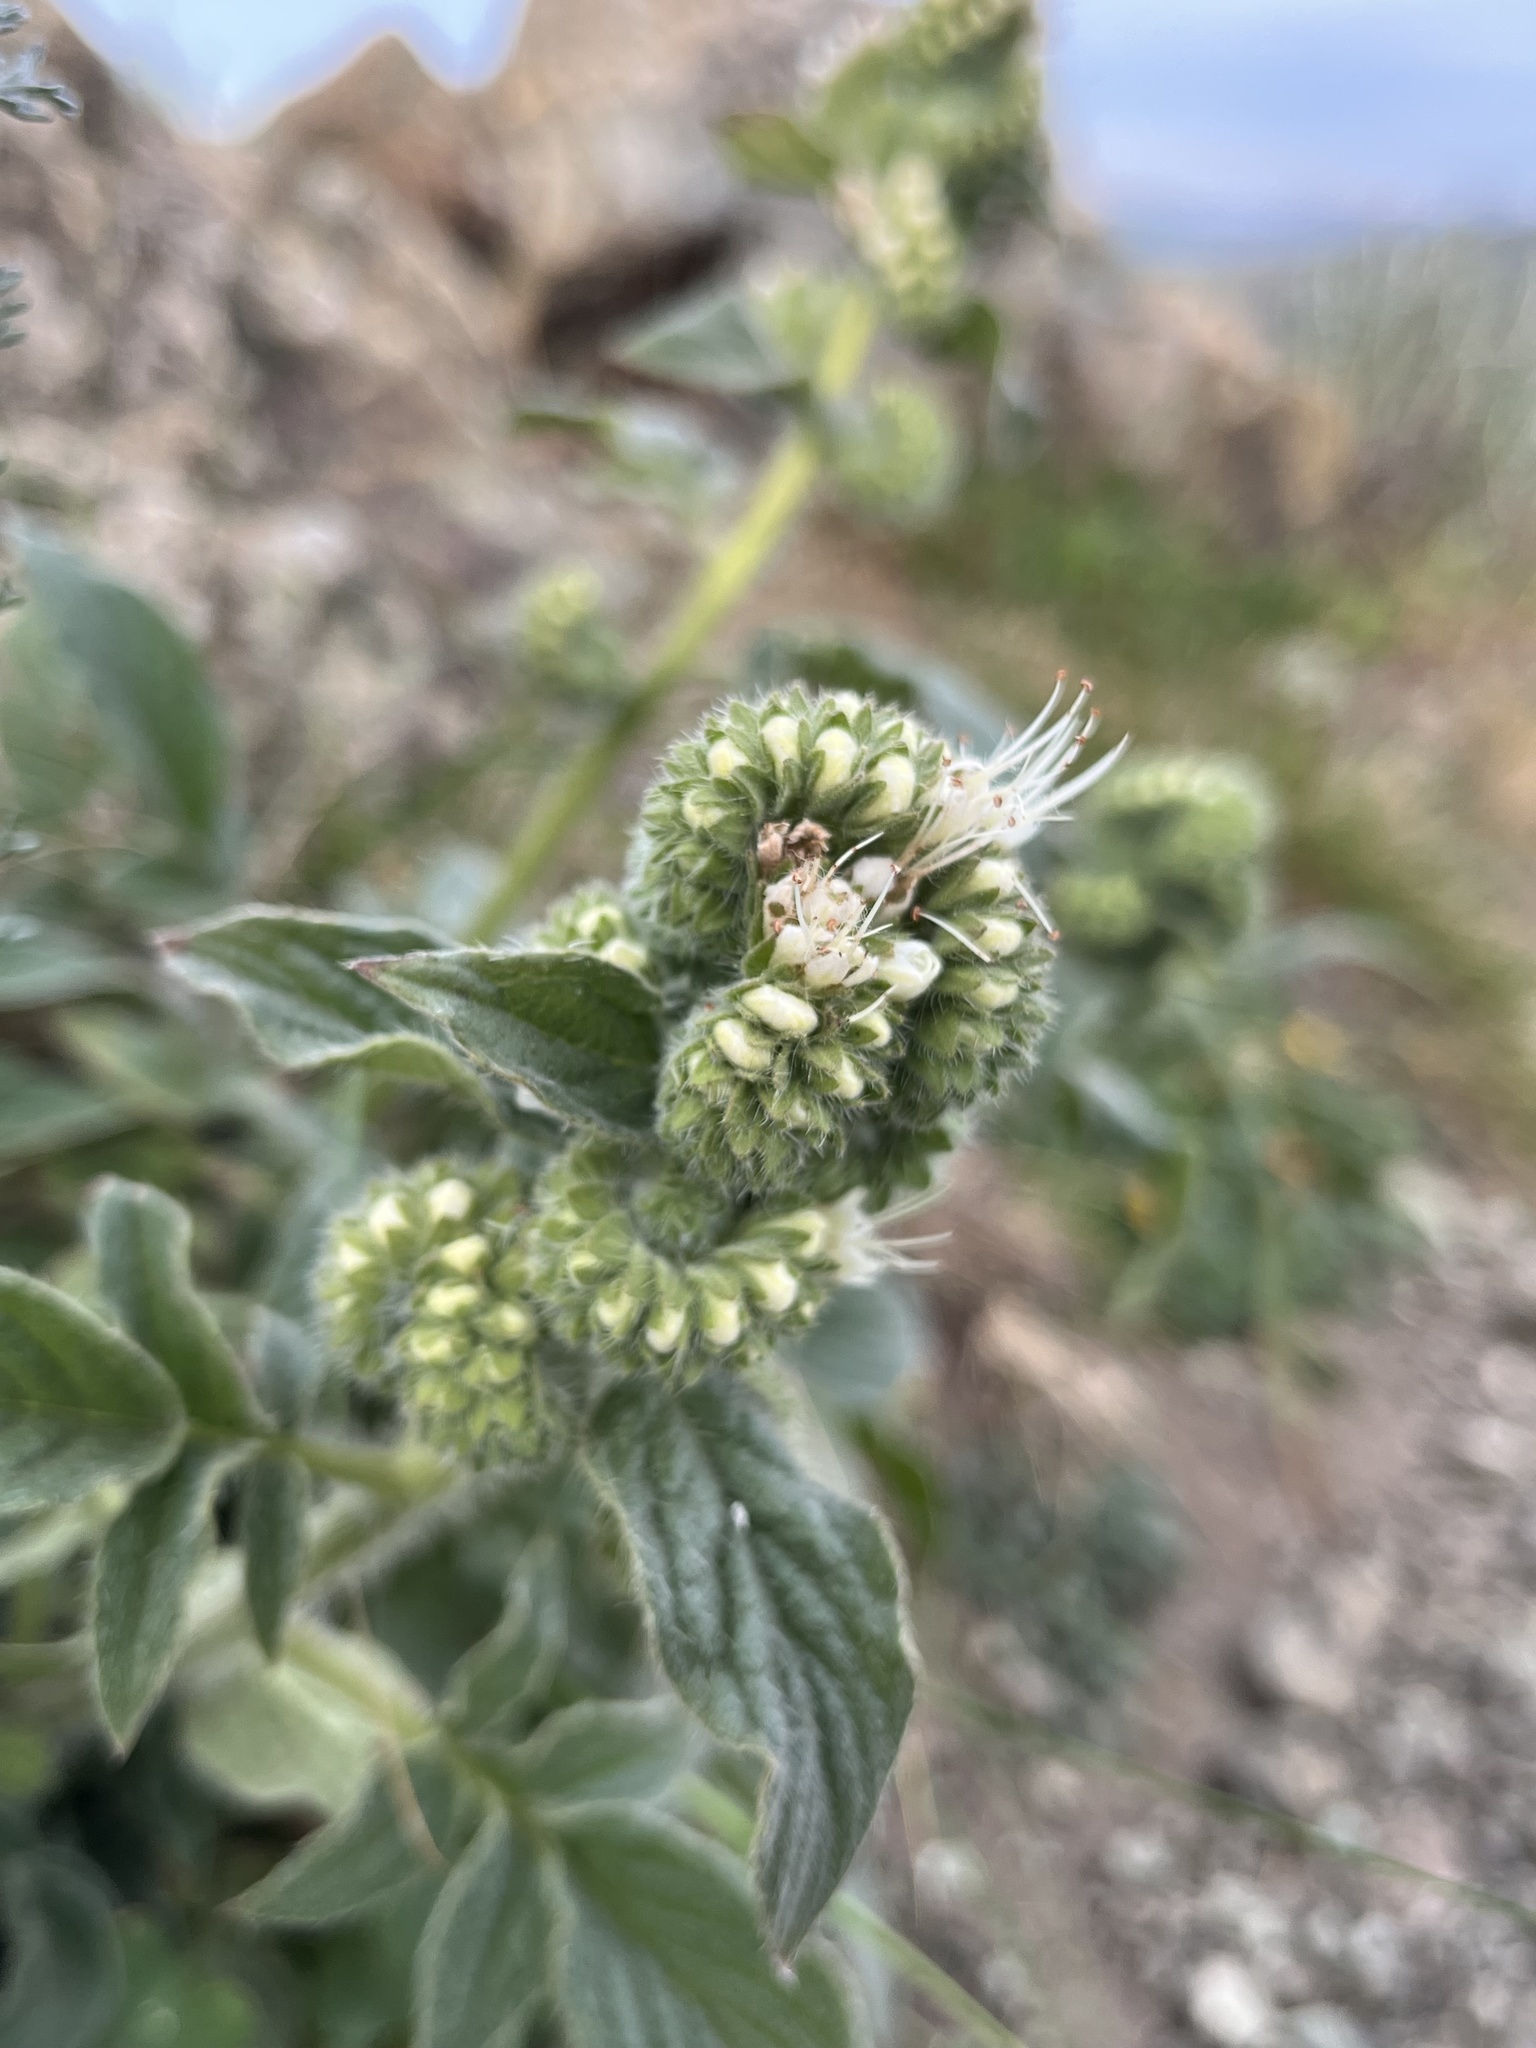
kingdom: Plantae
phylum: Tracheophyta
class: Magnoliopsida
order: Boraginales
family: Hydrophyllaceae
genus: Phacelia
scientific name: Phacelia imbricata
